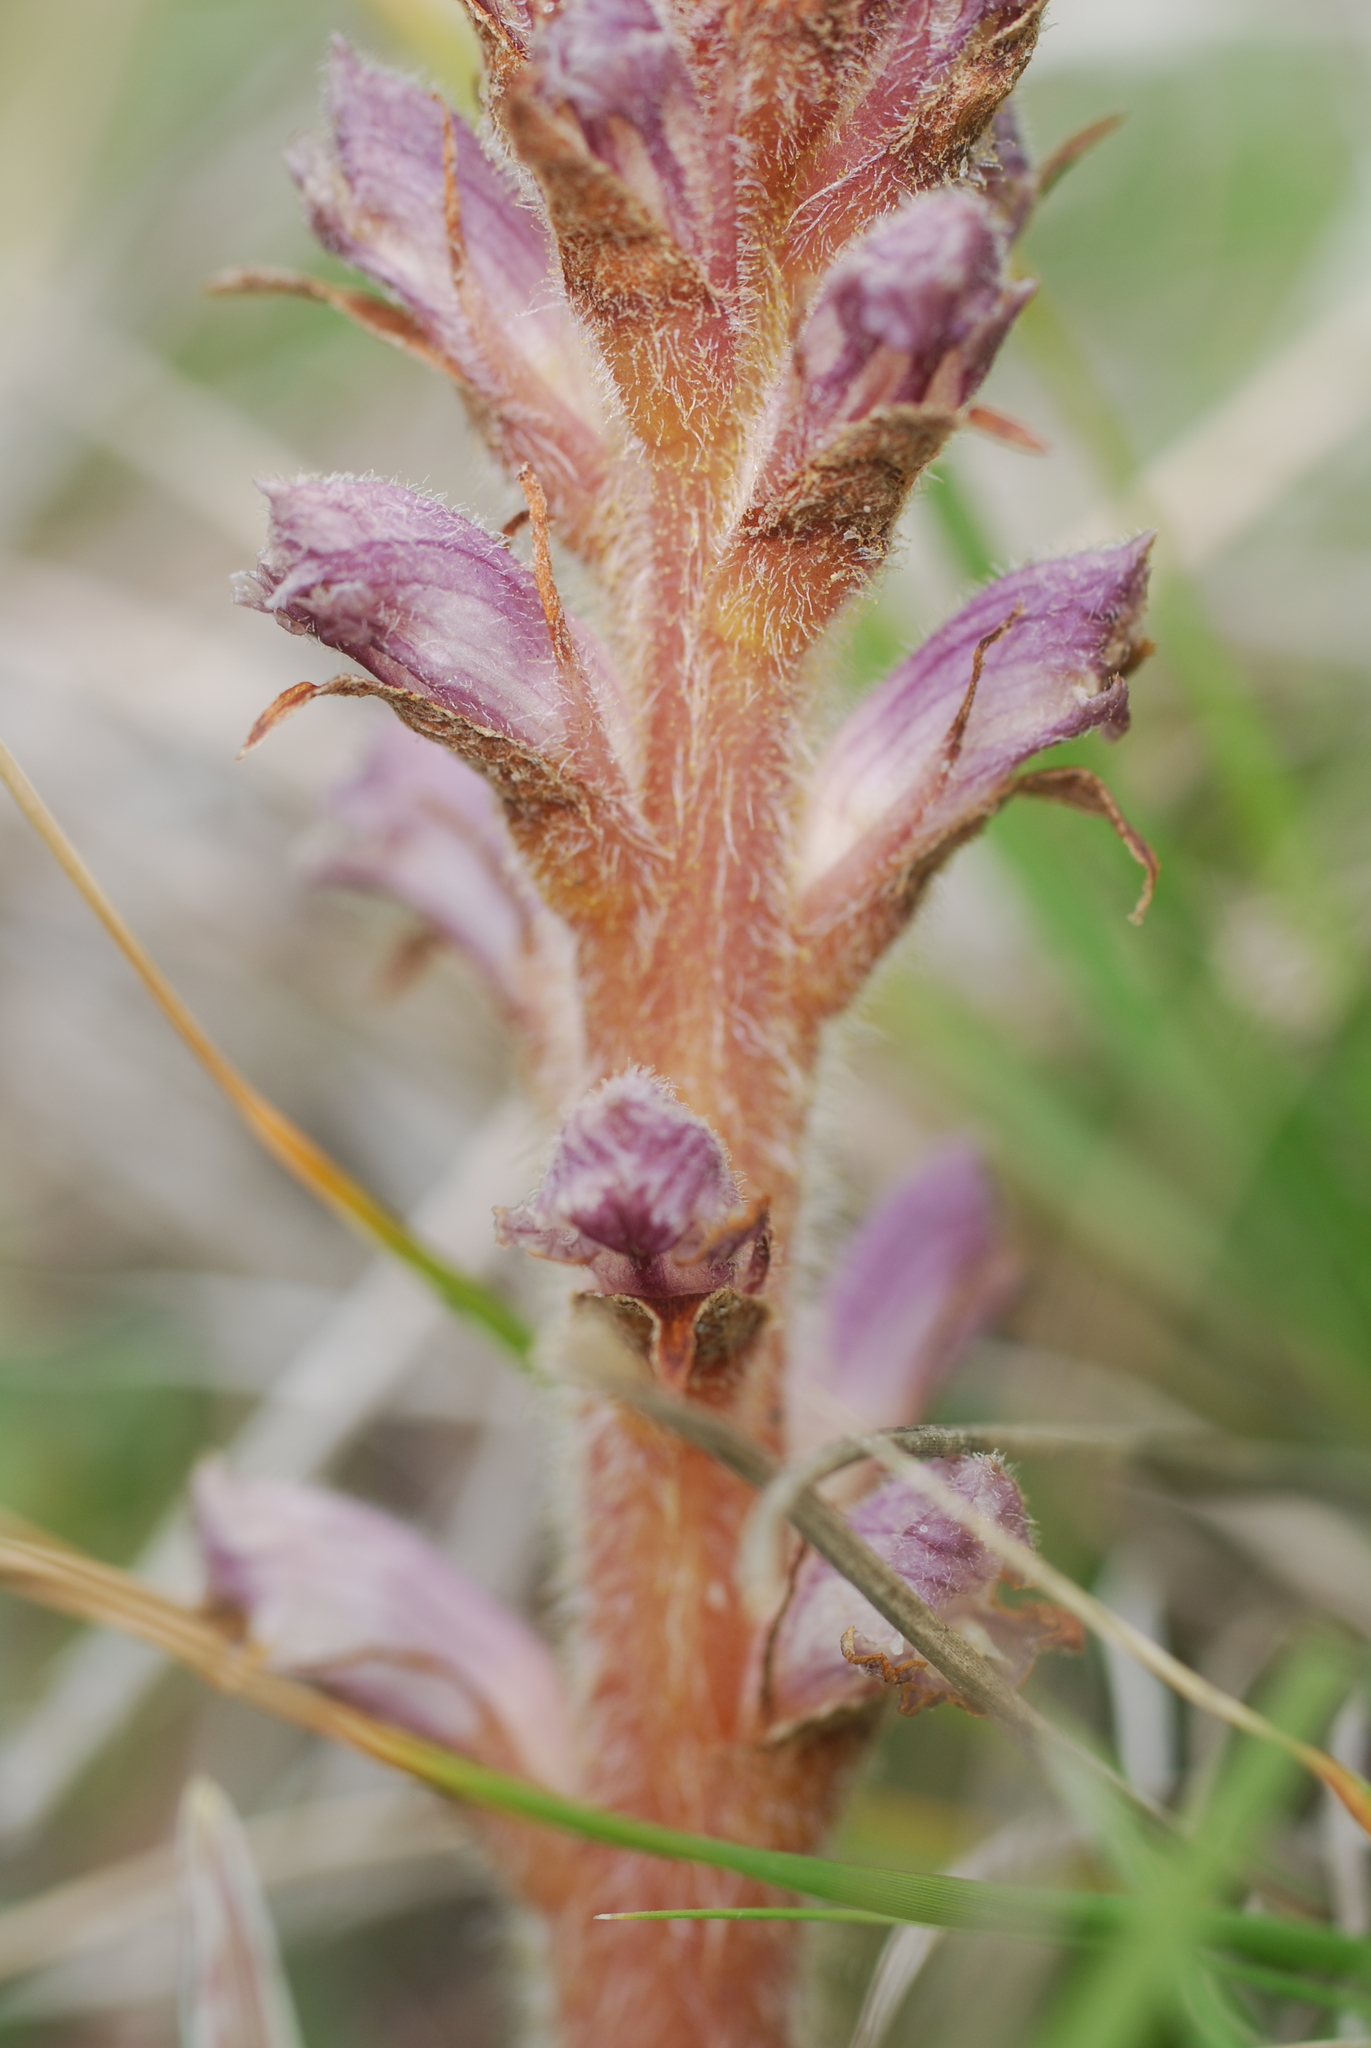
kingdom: Plantae
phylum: Tracheophyta
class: Magnoliopsida
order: Lamiales
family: Orobanchaceae
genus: Orobanche
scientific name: Orobanche minor
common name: Common broomrape
